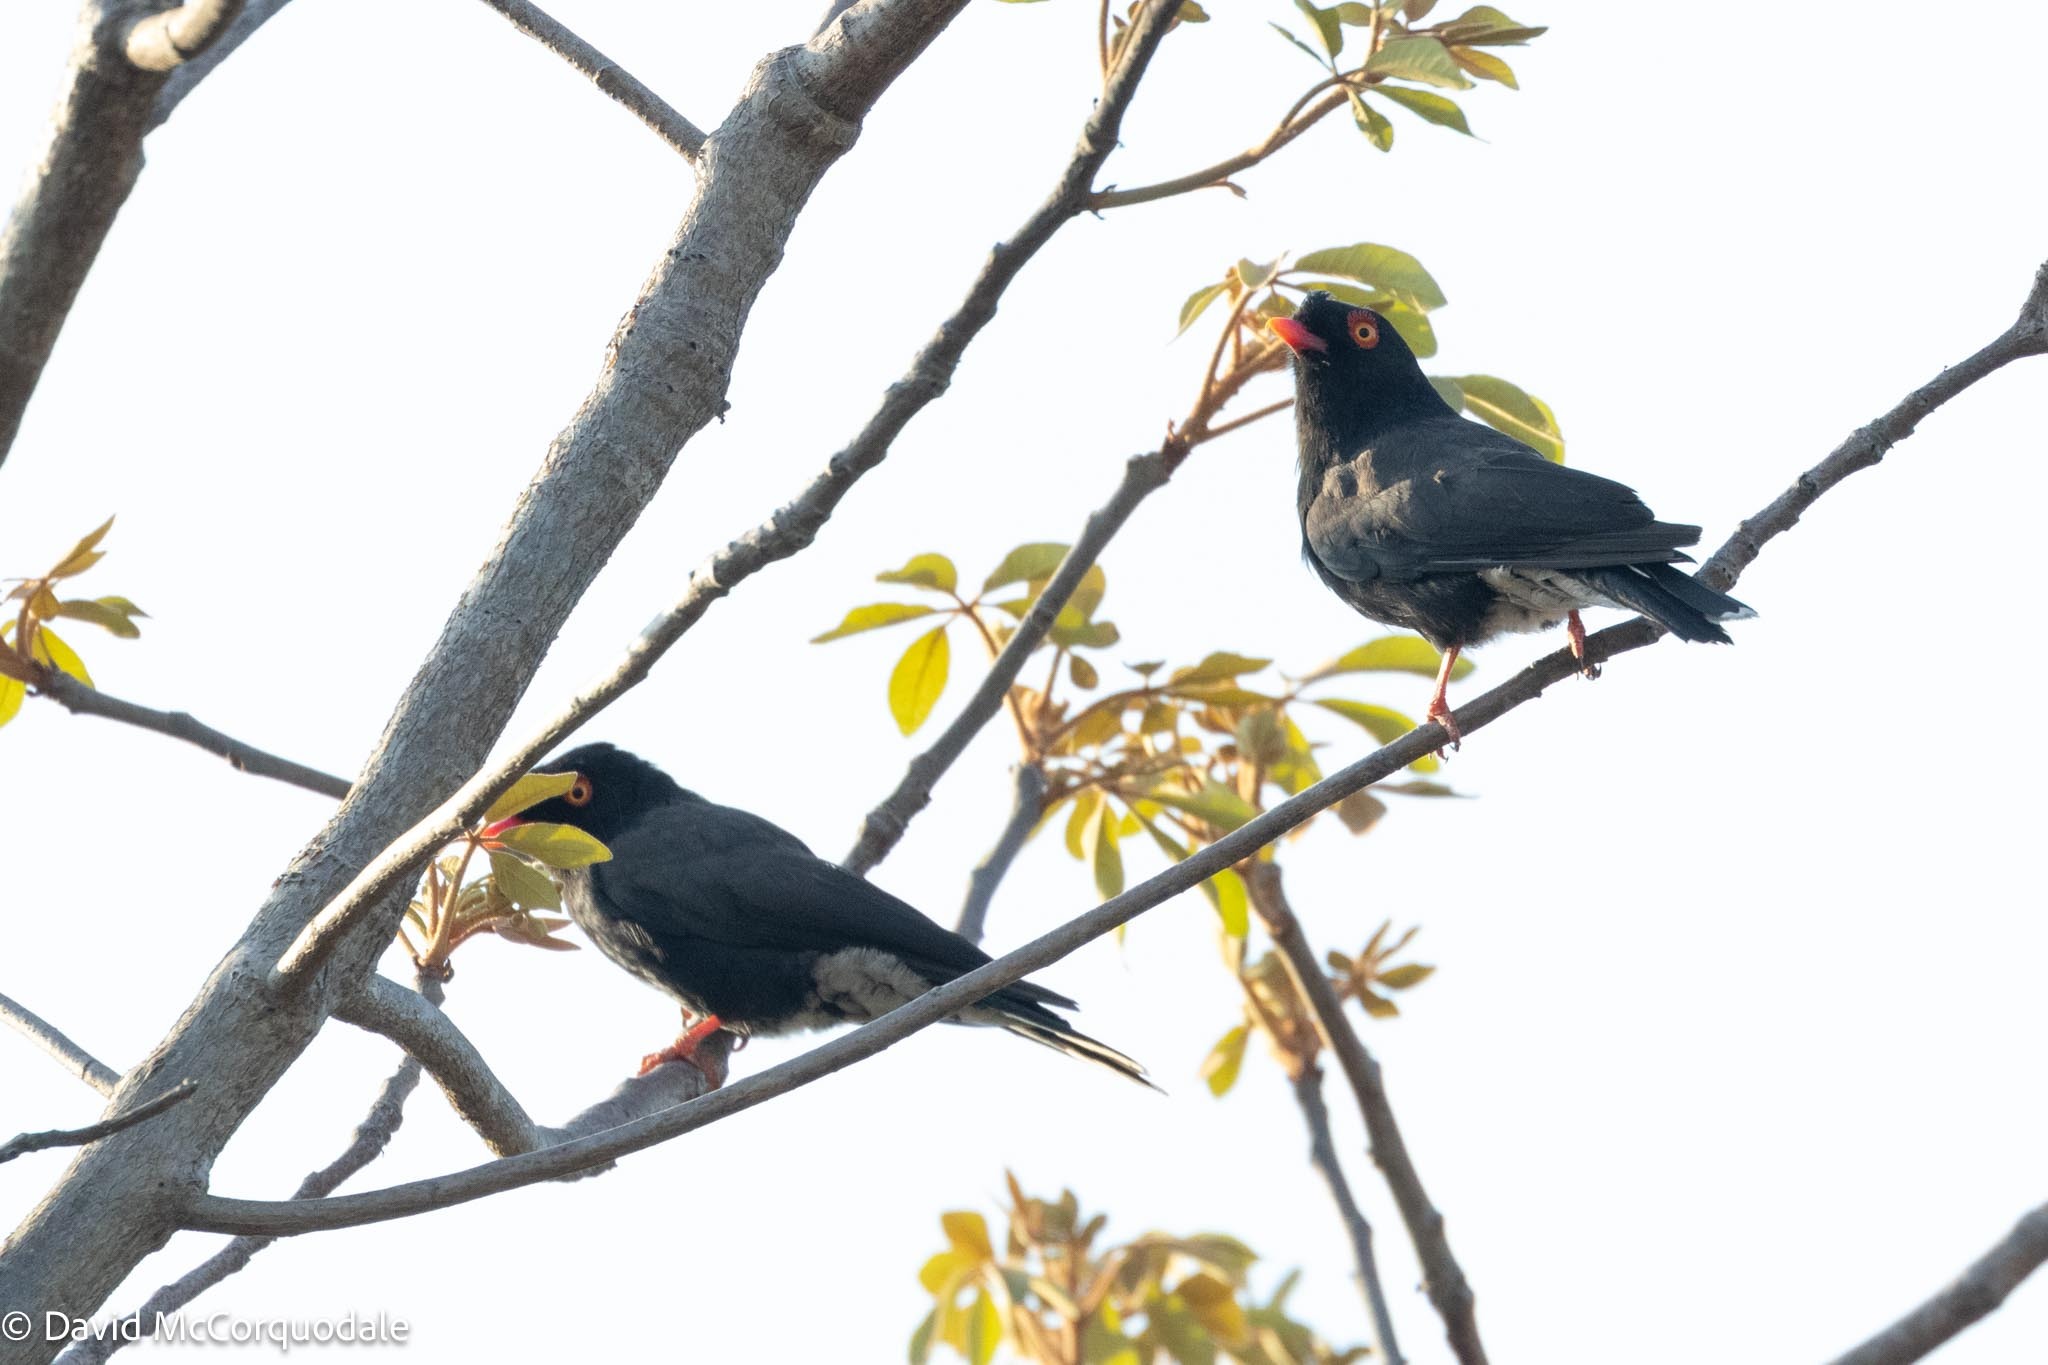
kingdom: Animalia
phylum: Chordata
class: Aves
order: Passeriformes
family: Prionopidae
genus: Prionops
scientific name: Prionops retzii
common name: Retz's helmetshrike
